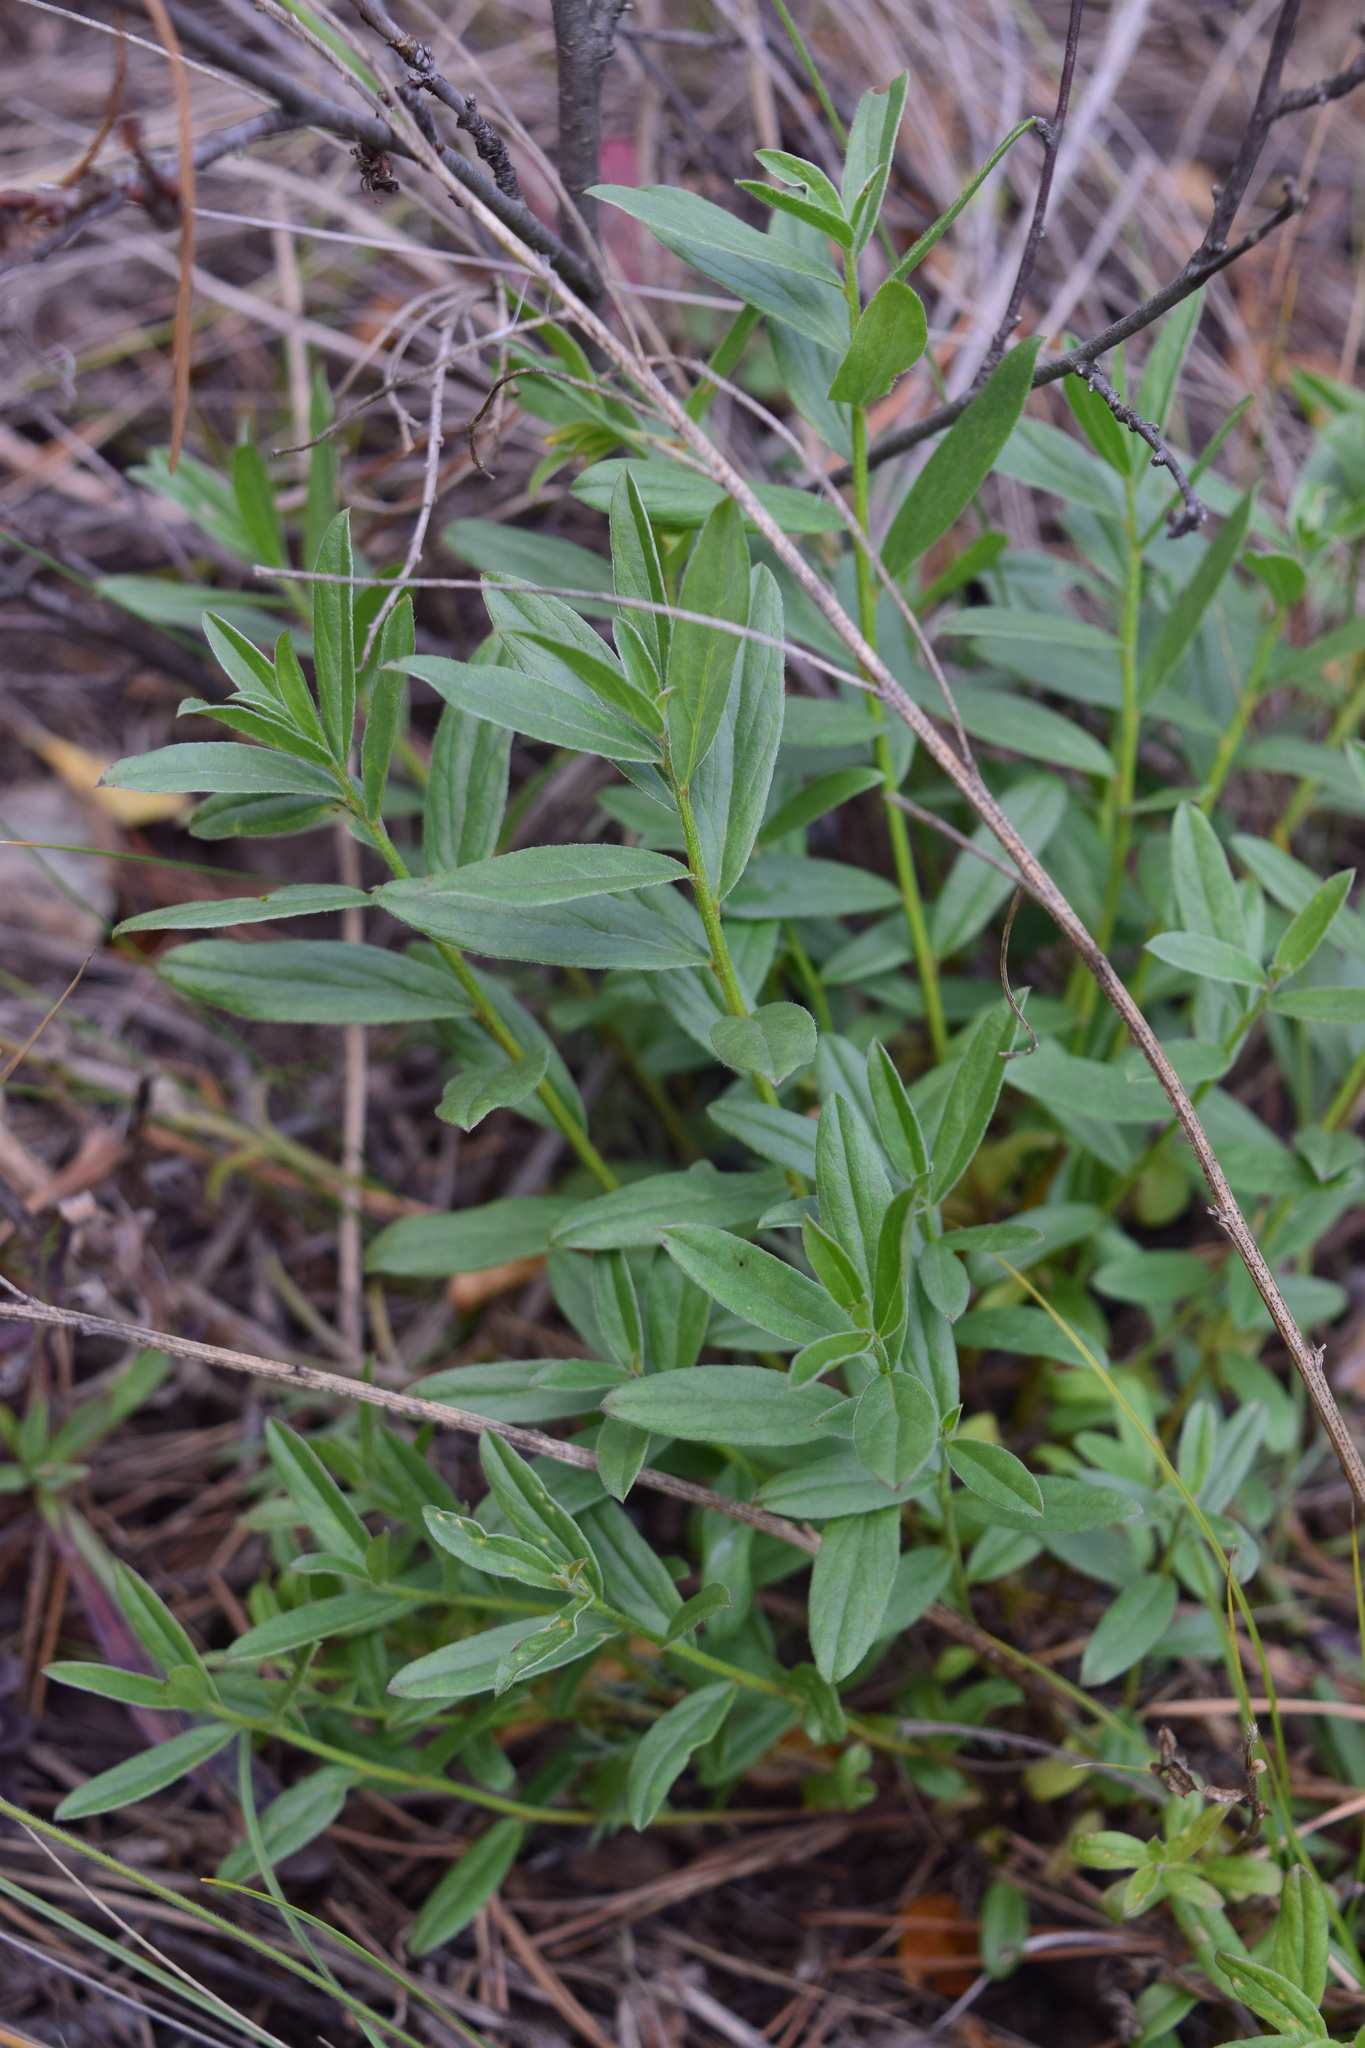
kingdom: Plantae
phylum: Tracheophyta
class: Magnoliopsida
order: Fabales
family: Fabaceae
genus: Genista
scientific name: Genista tinctoria
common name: Dyer's greenweed
